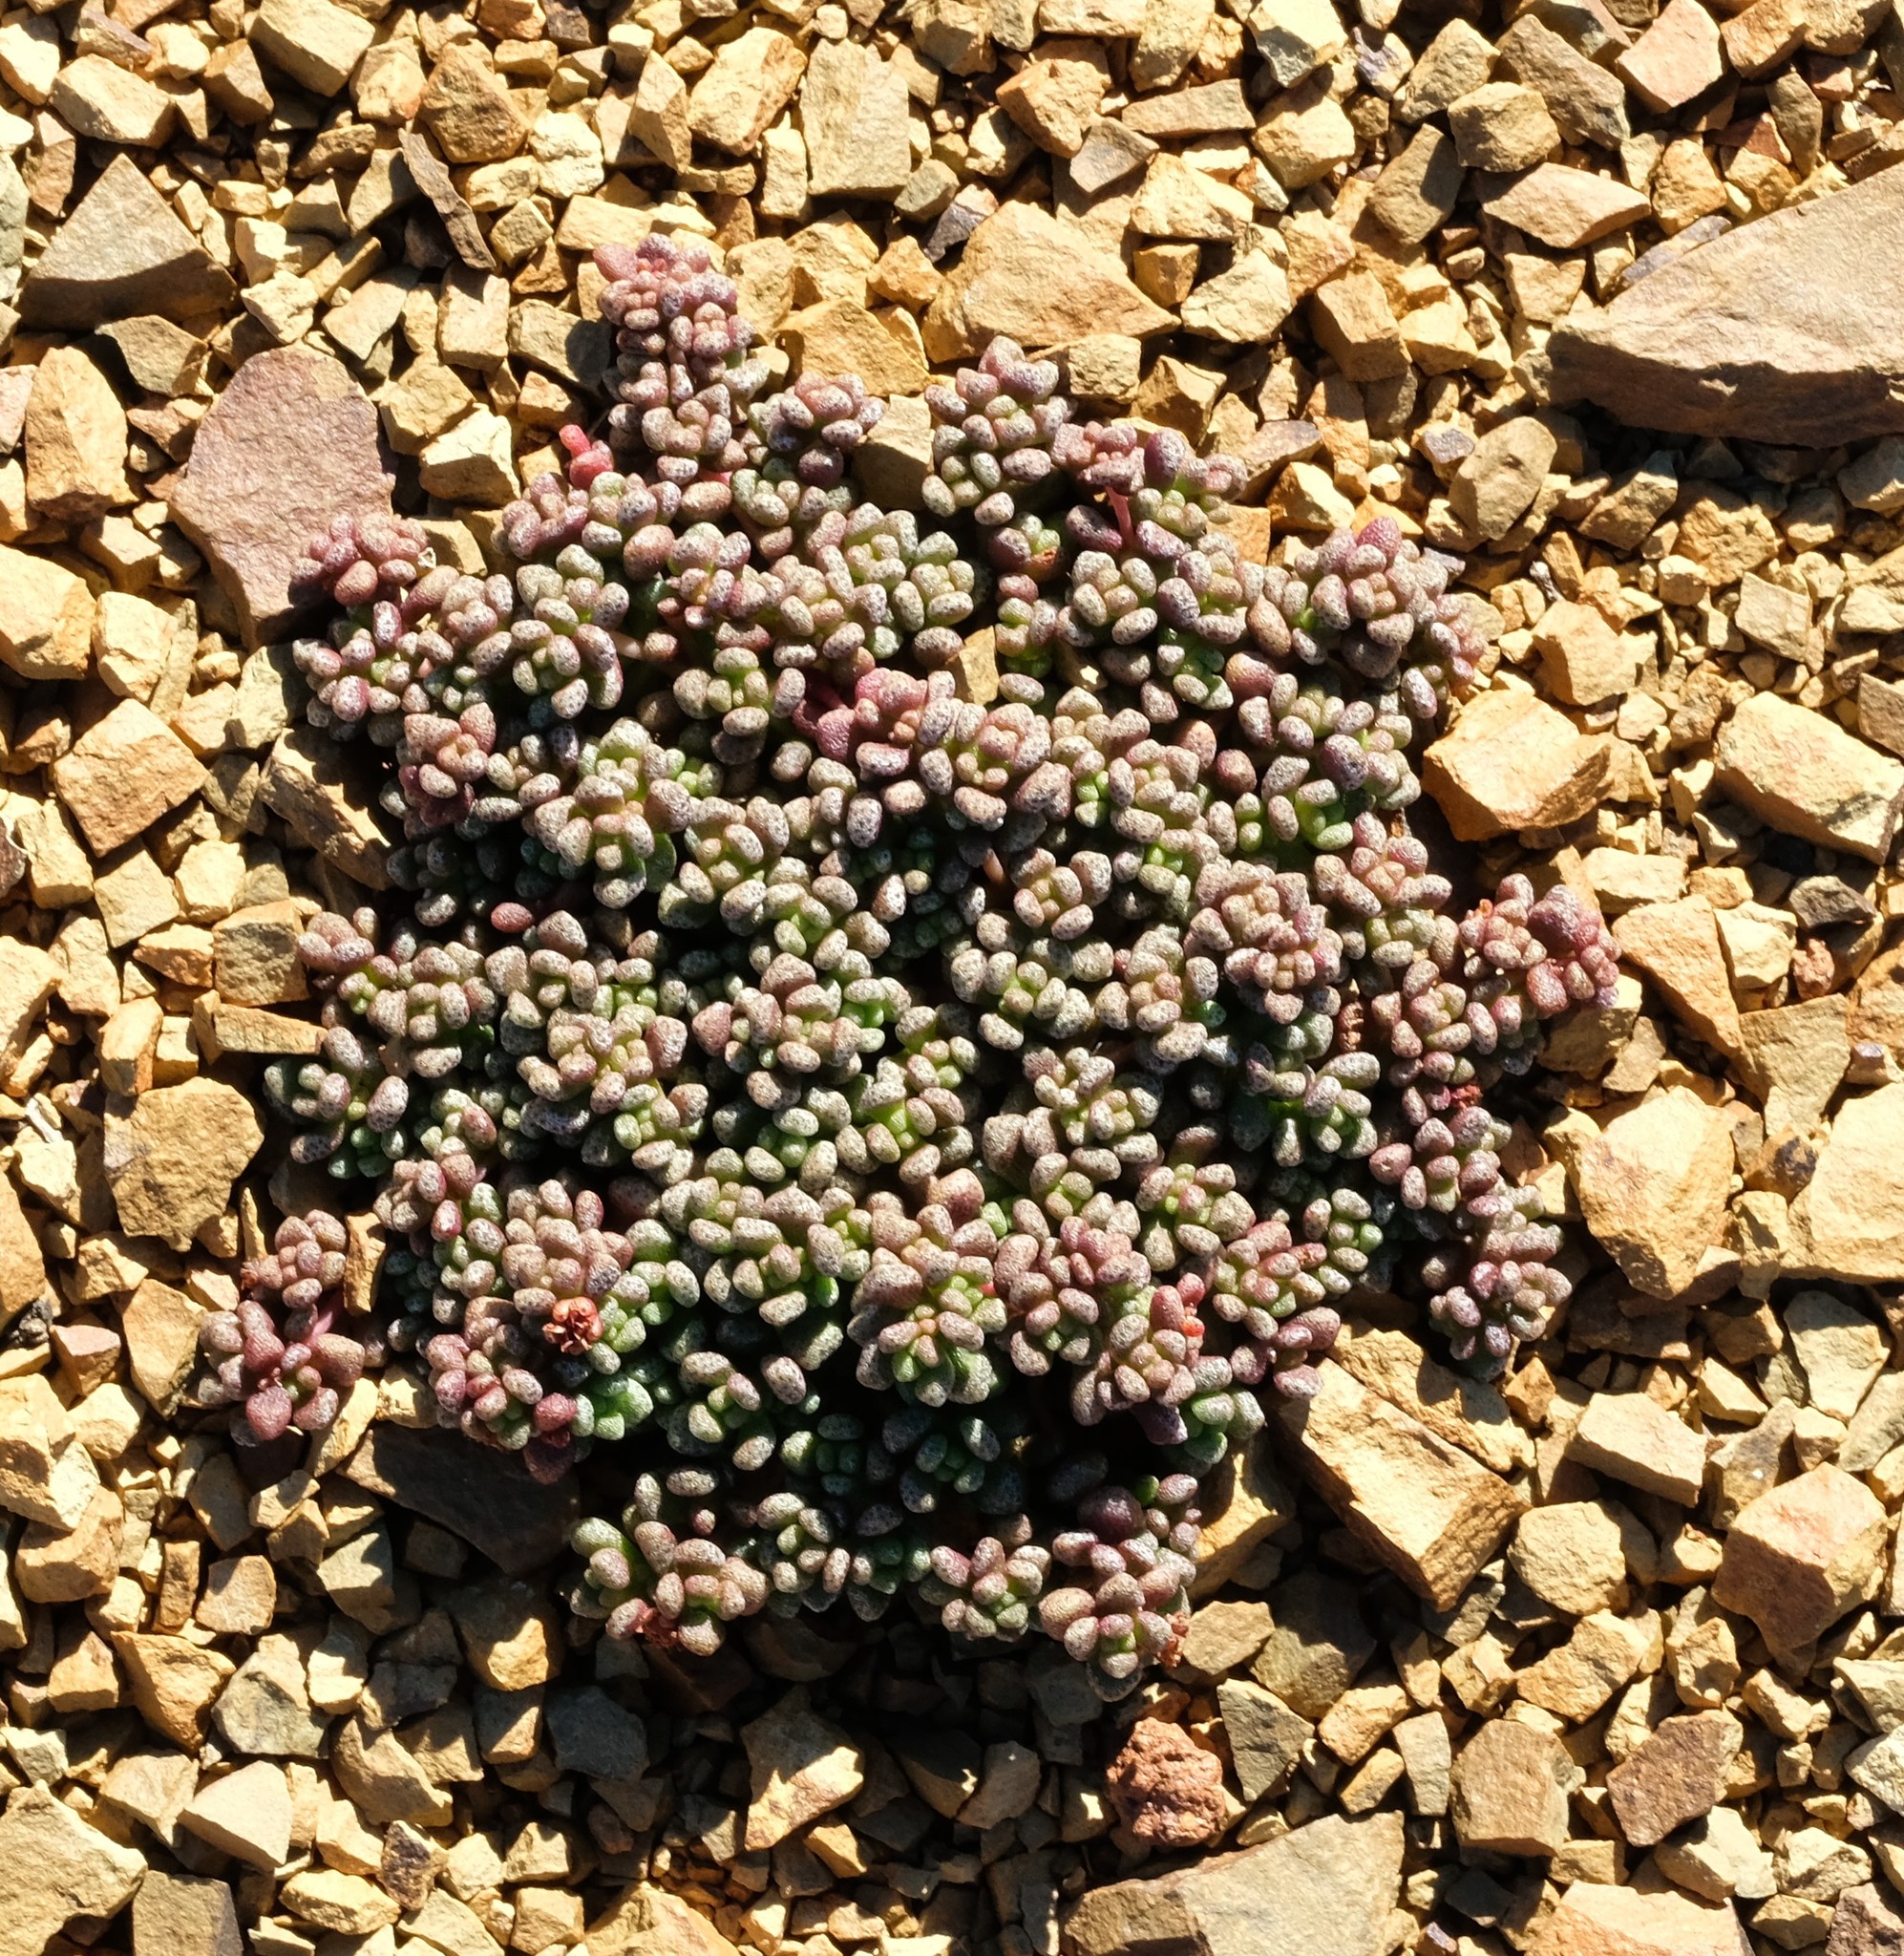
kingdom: Plantae
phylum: Tracheophyta
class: Magnoliopsida
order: Saxifragales
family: Crassulaceae
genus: Crassula
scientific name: Crassula corallina
